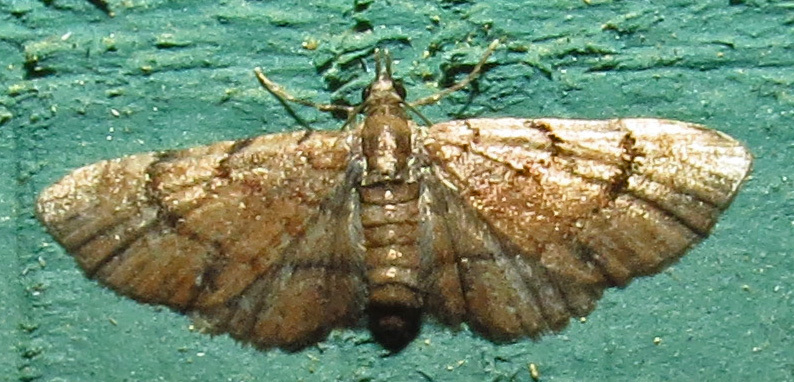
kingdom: Animalia
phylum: Arthropoda
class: Insecta
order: Lepidoptera
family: Geometridae
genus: Eupithecia
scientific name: Eupithecia peckorum
